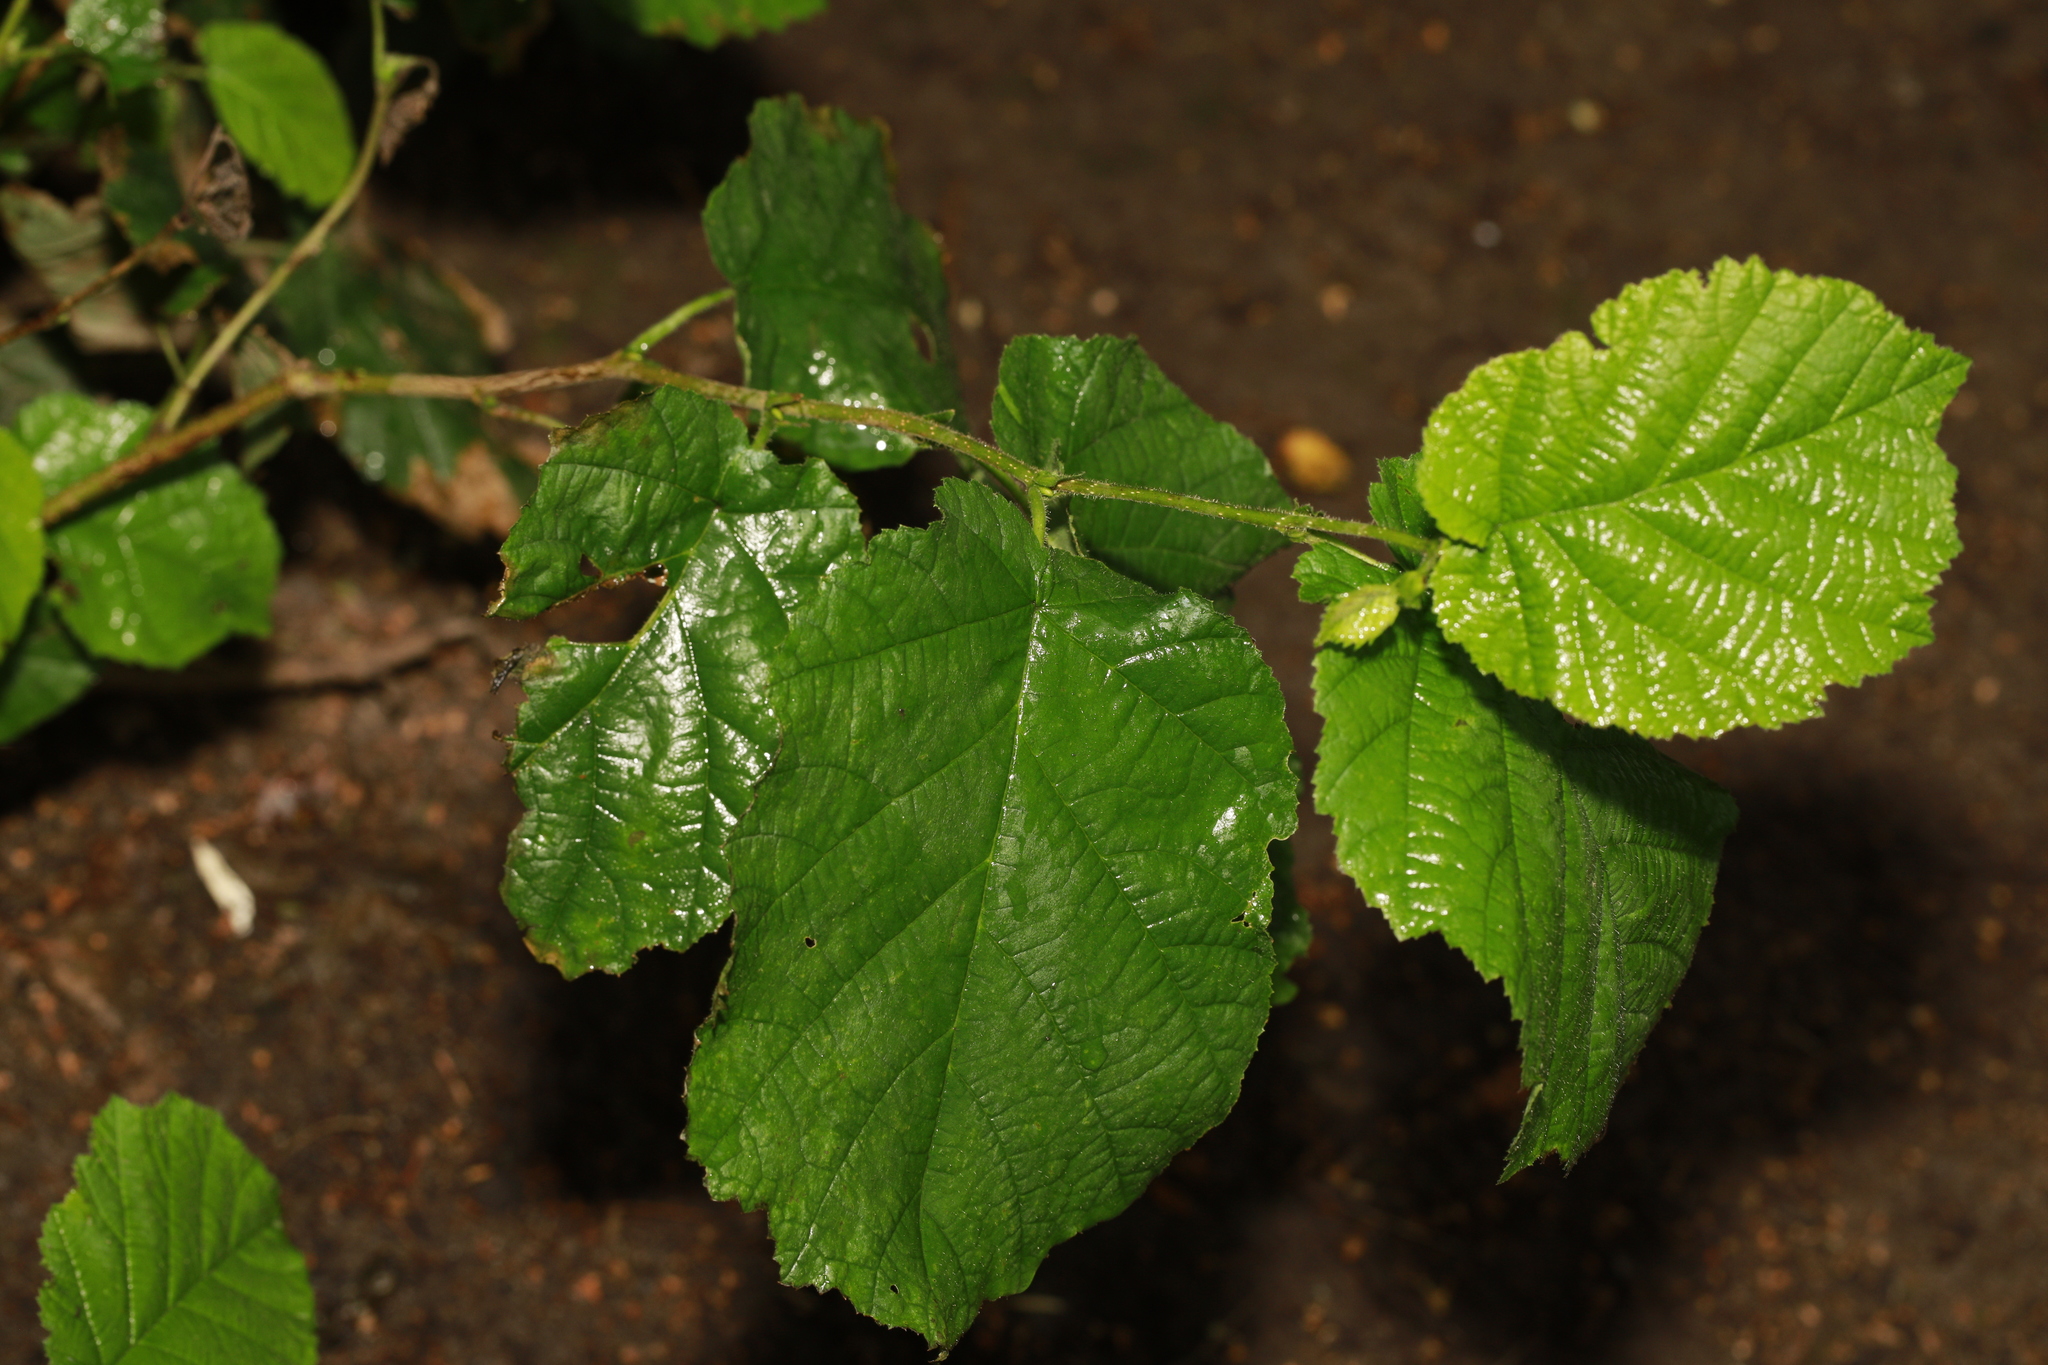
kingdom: Plantae
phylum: Tracheophyta
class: Magnoliopsida
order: Fagales
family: Betulaceae
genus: Corylus
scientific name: Corylus avellana
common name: European hazel
